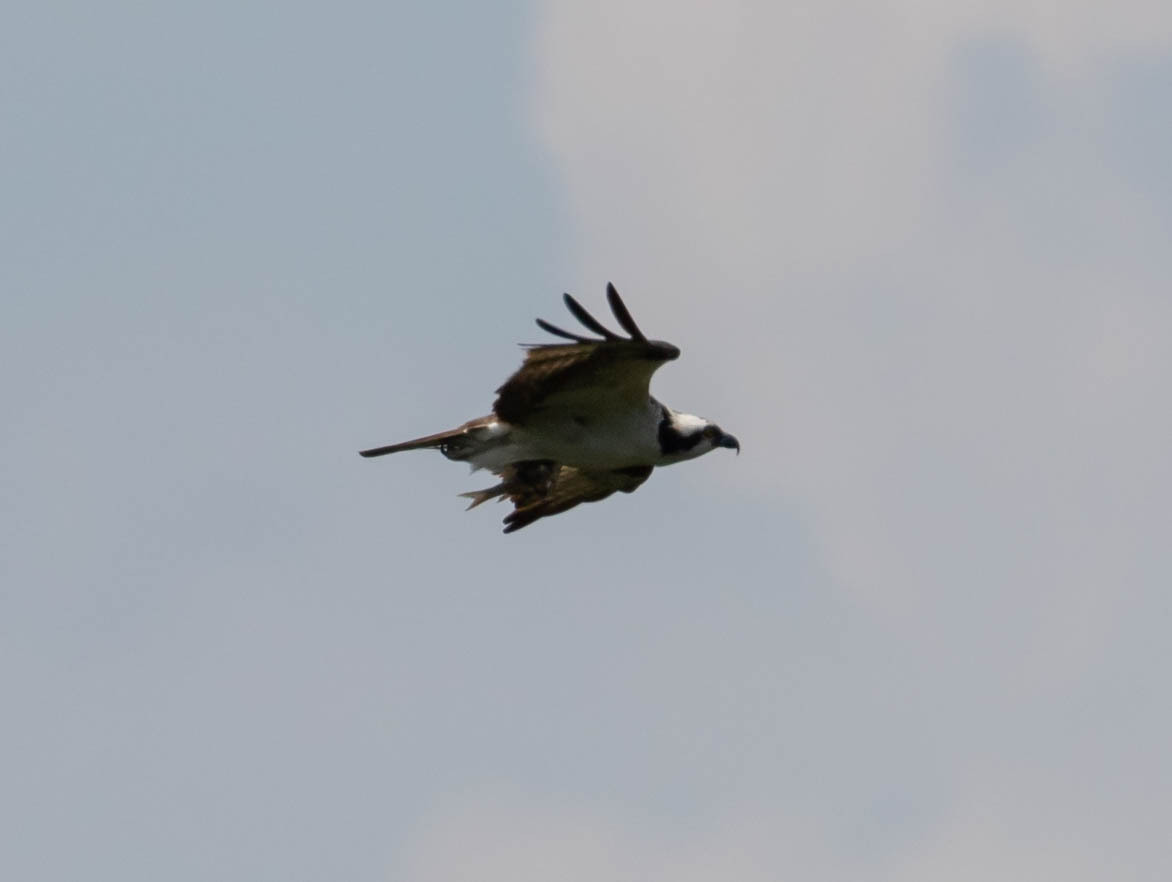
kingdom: Animalia
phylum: Chordata
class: Aves
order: Accipitriformes
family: Pandionidae
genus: Pandion
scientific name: Pandion haliaetus
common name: Osprey
